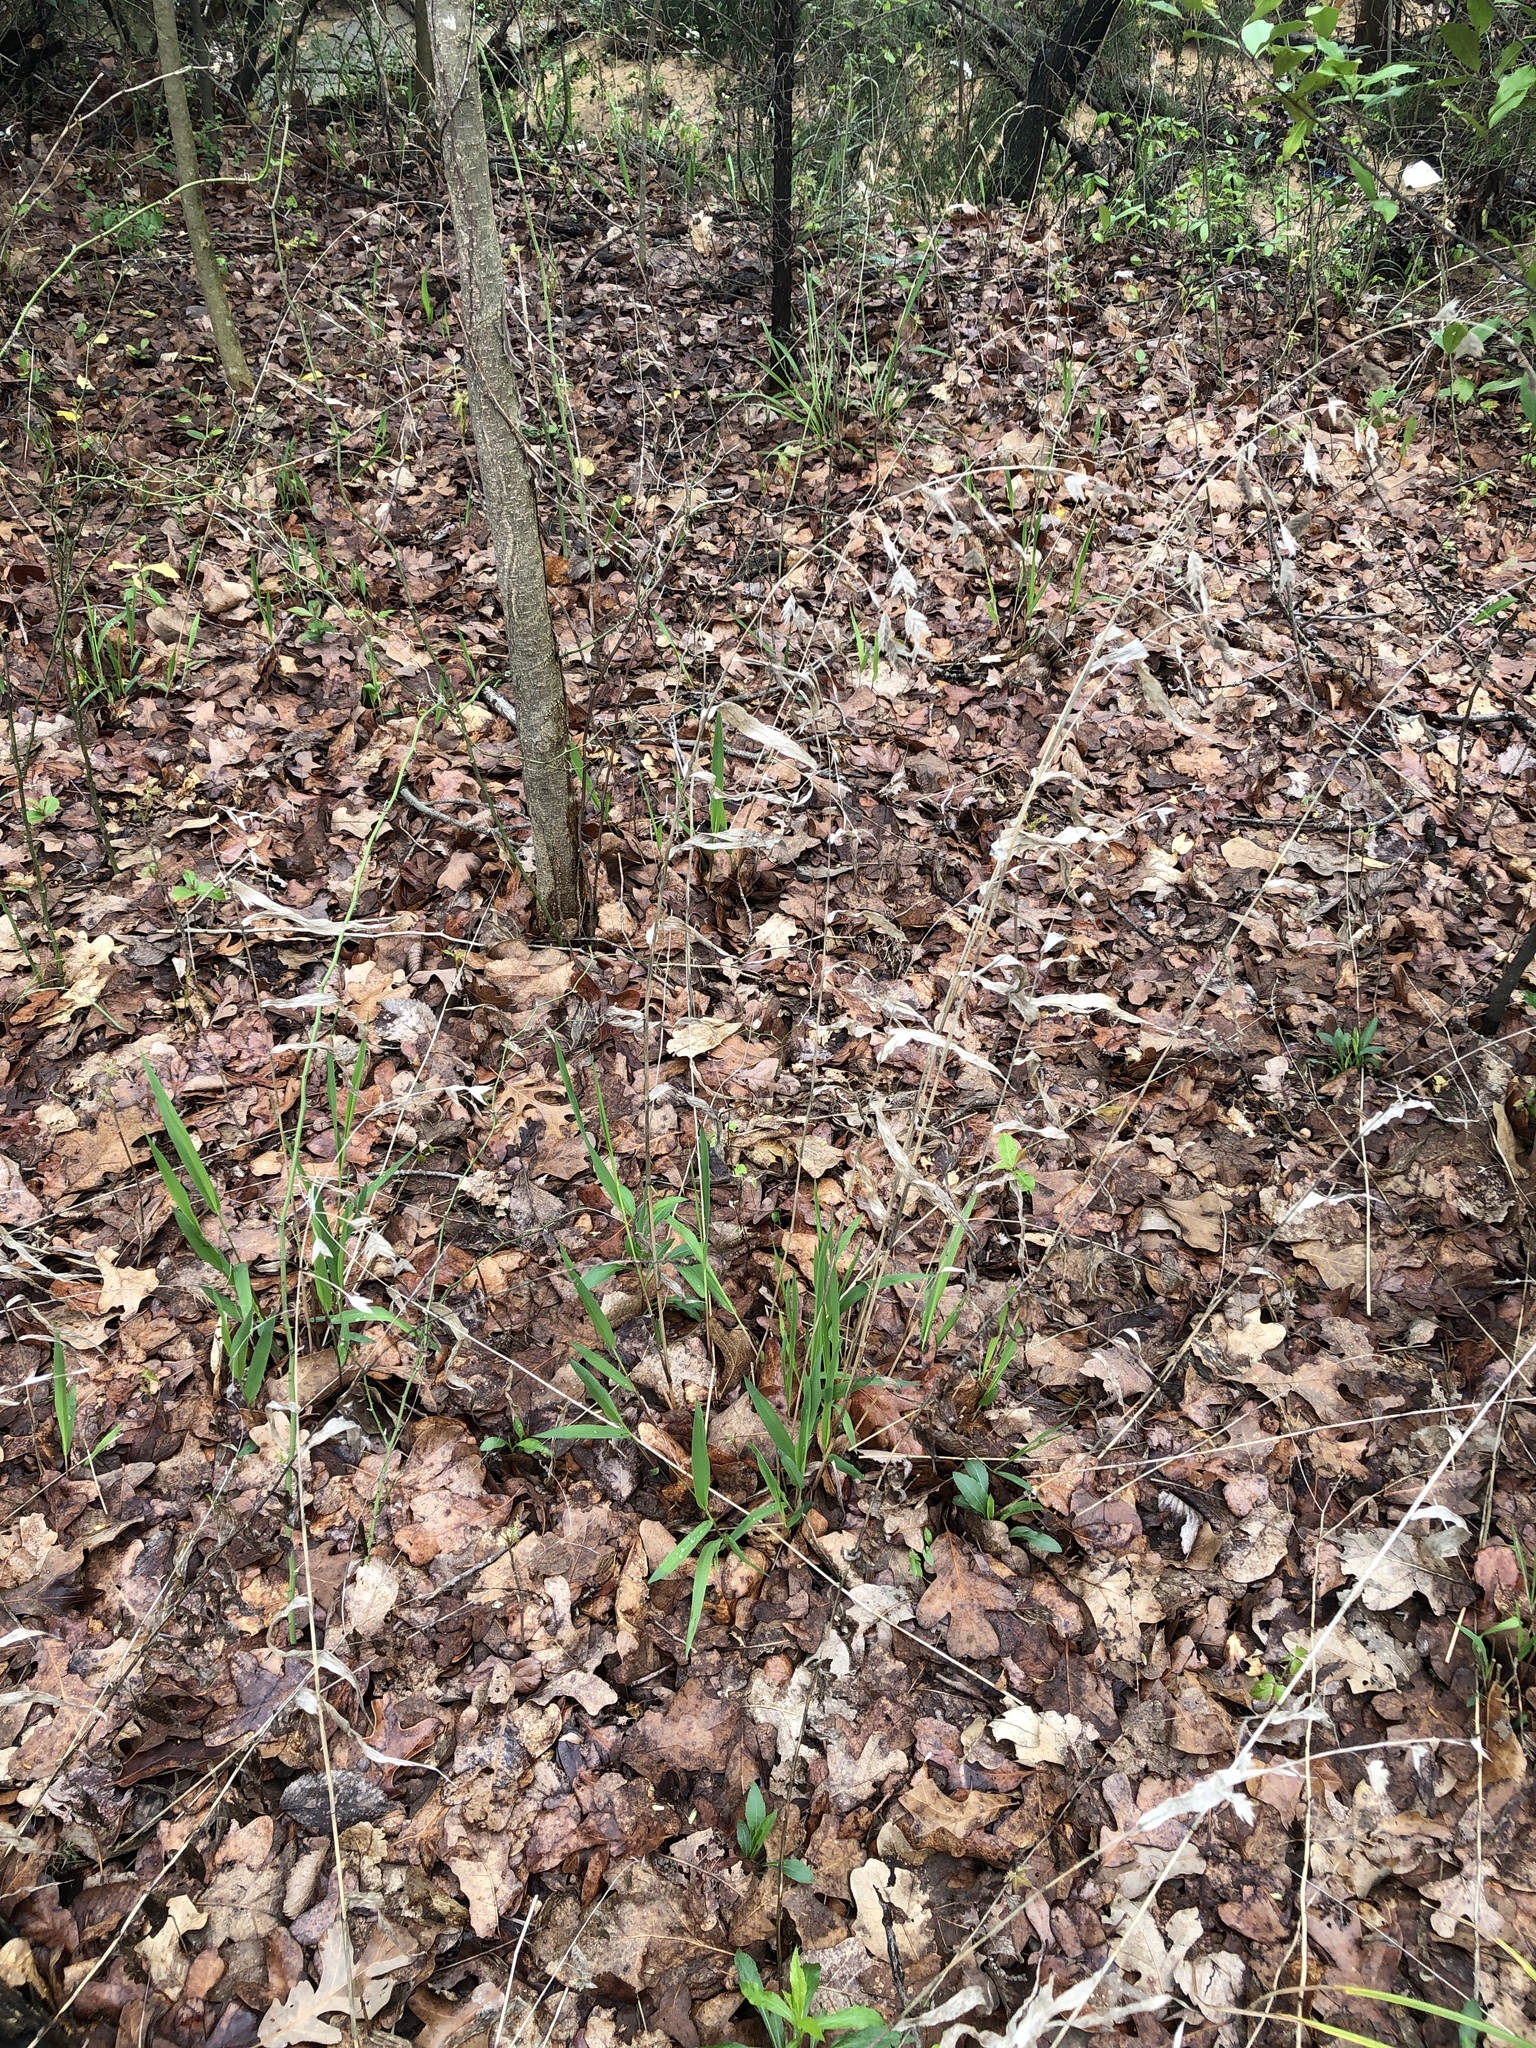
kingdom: Plantae
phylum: Tracheophyta
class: Liliopsida
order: Poales
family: Poaceae
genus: Chasmanthium
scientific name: Chasmanthium latifolium
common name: Broad-leaved chasmanthium
